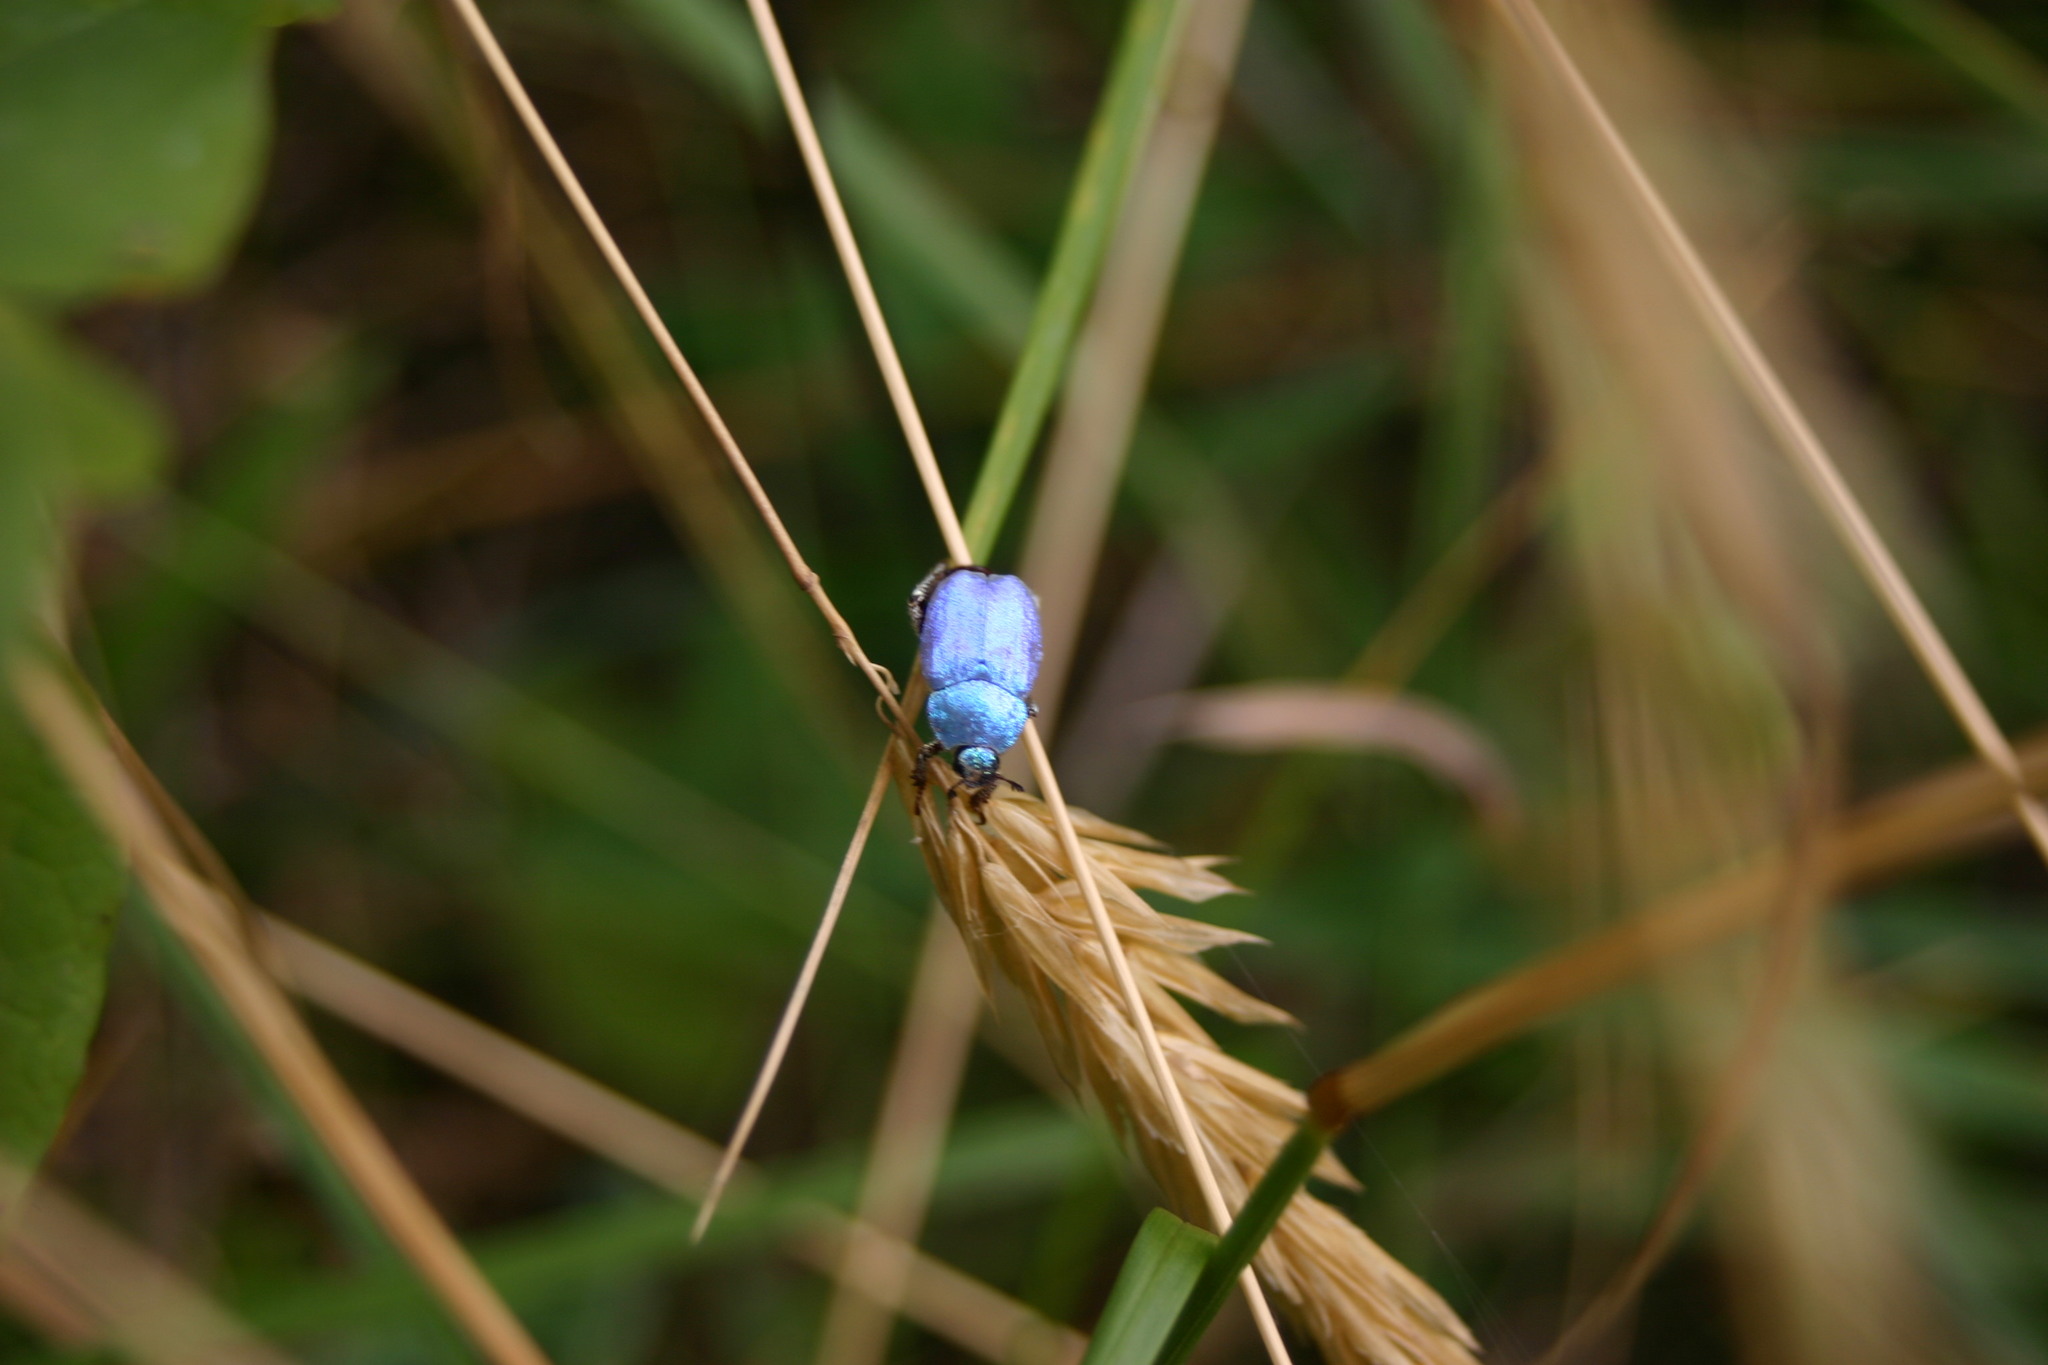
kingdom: Animalia
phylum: Arthropoda
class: Insecta
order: Coleoptera
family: Scarabaeidae
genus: Hoplia
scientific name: Hoplia coerulea
